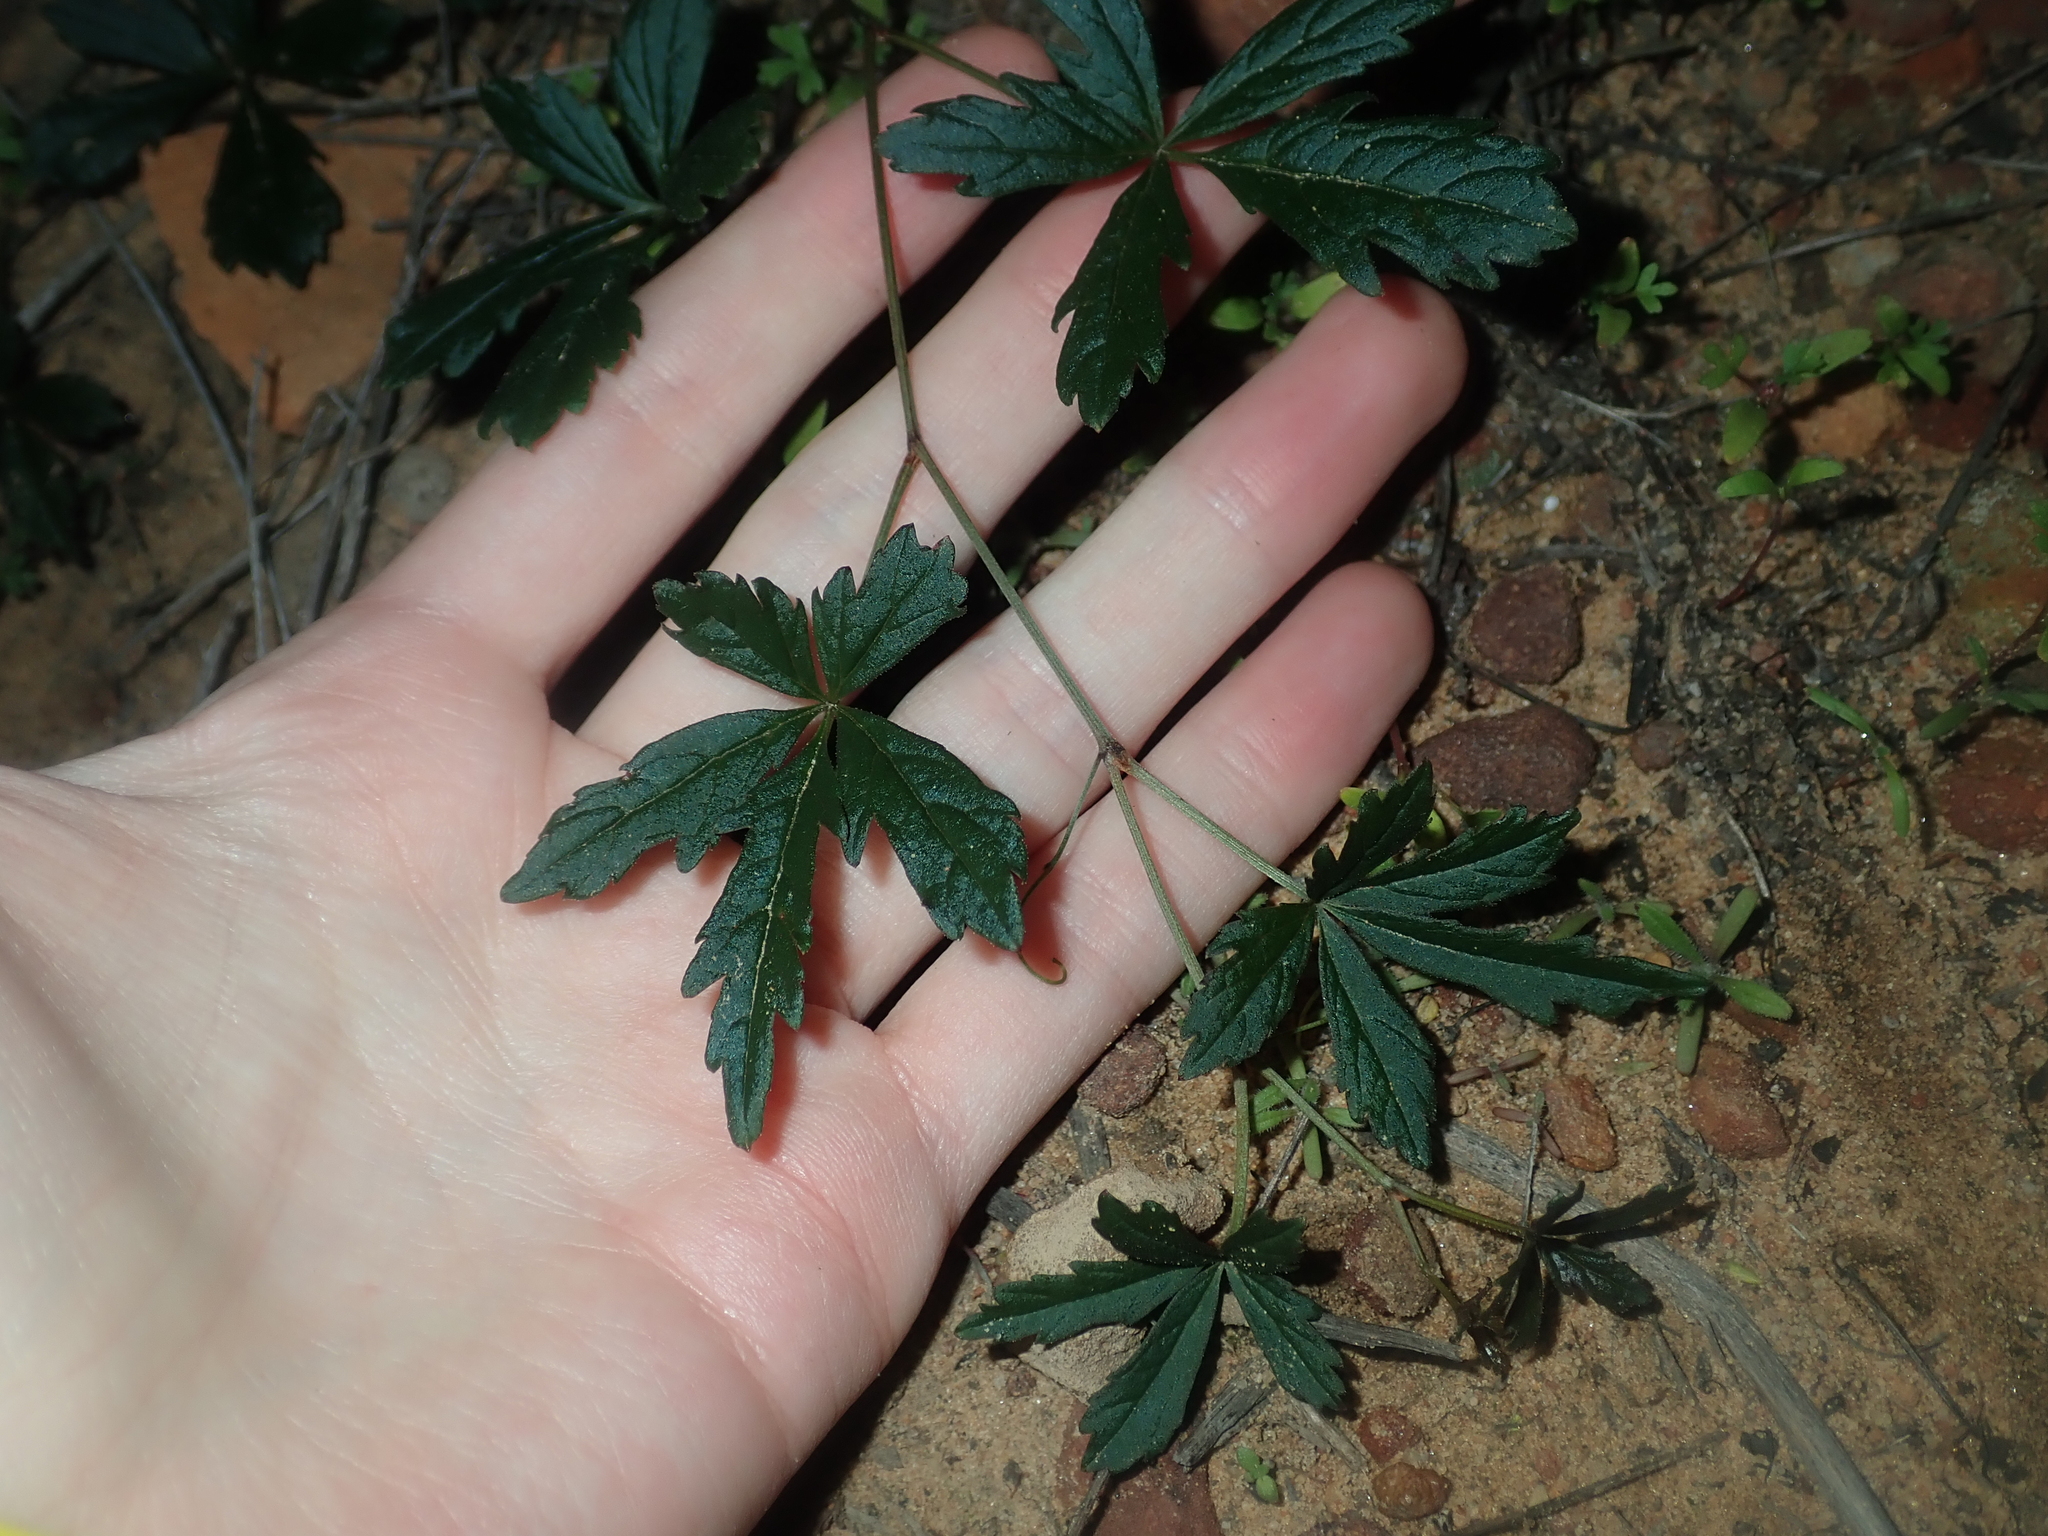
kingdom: Plantae
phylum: Tracheophyta
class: Magnoliopsida
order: Vitales
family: Vitaceae
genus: Clematicissus
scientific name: Clematicissus angustissima
